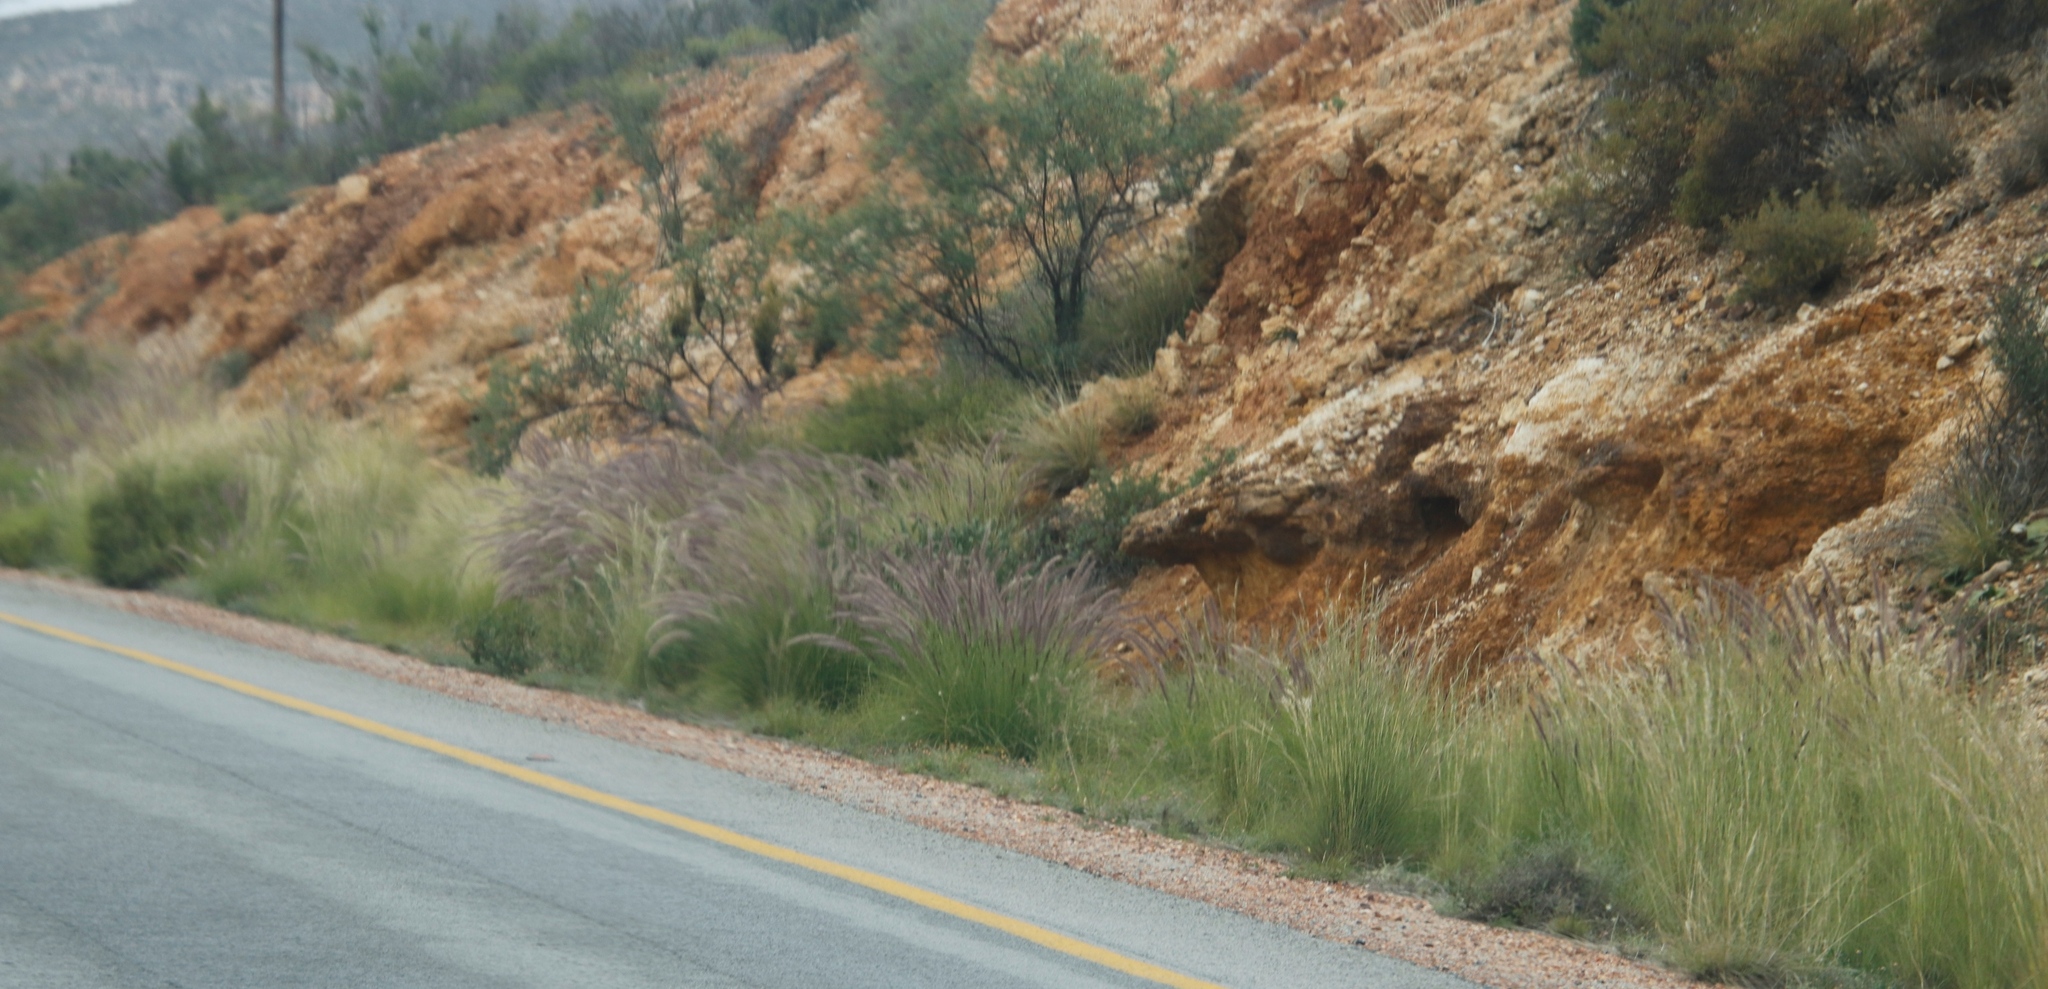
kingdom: Plantae
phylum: Tracheophyta
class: Liliopsida
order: Poales
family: Poaceae
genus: Cenchrus
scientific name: Cenchrus setaceus
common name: Crimson fountaingrass
